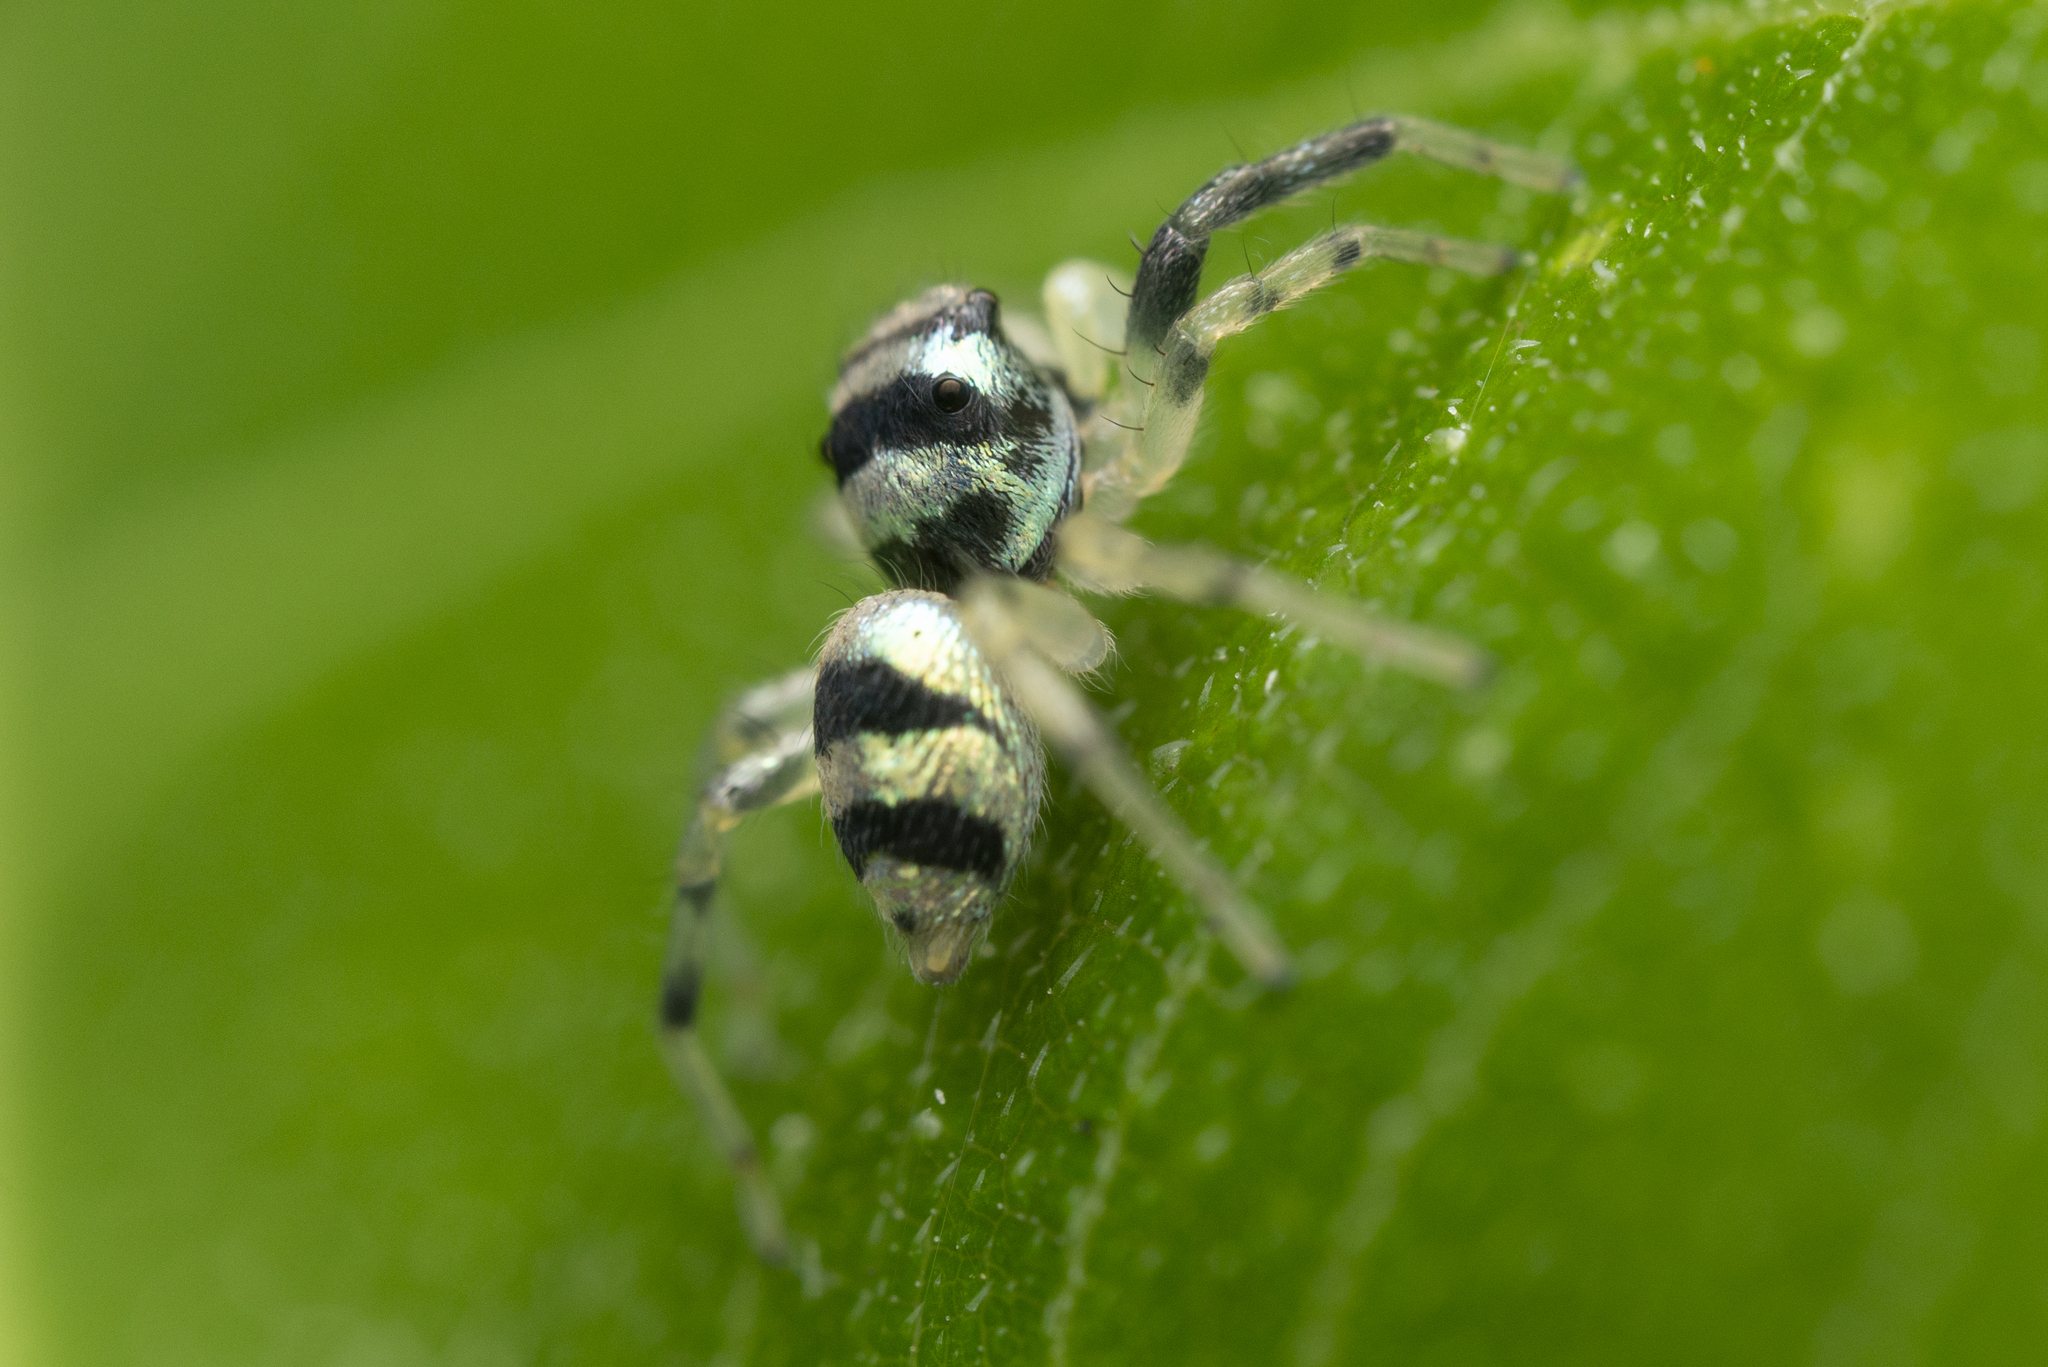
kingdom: Animalia
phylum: Arthropoda
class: Arachnida
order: Araneae
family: Salticidae
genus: Phintella
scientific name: Phintella accentifera
